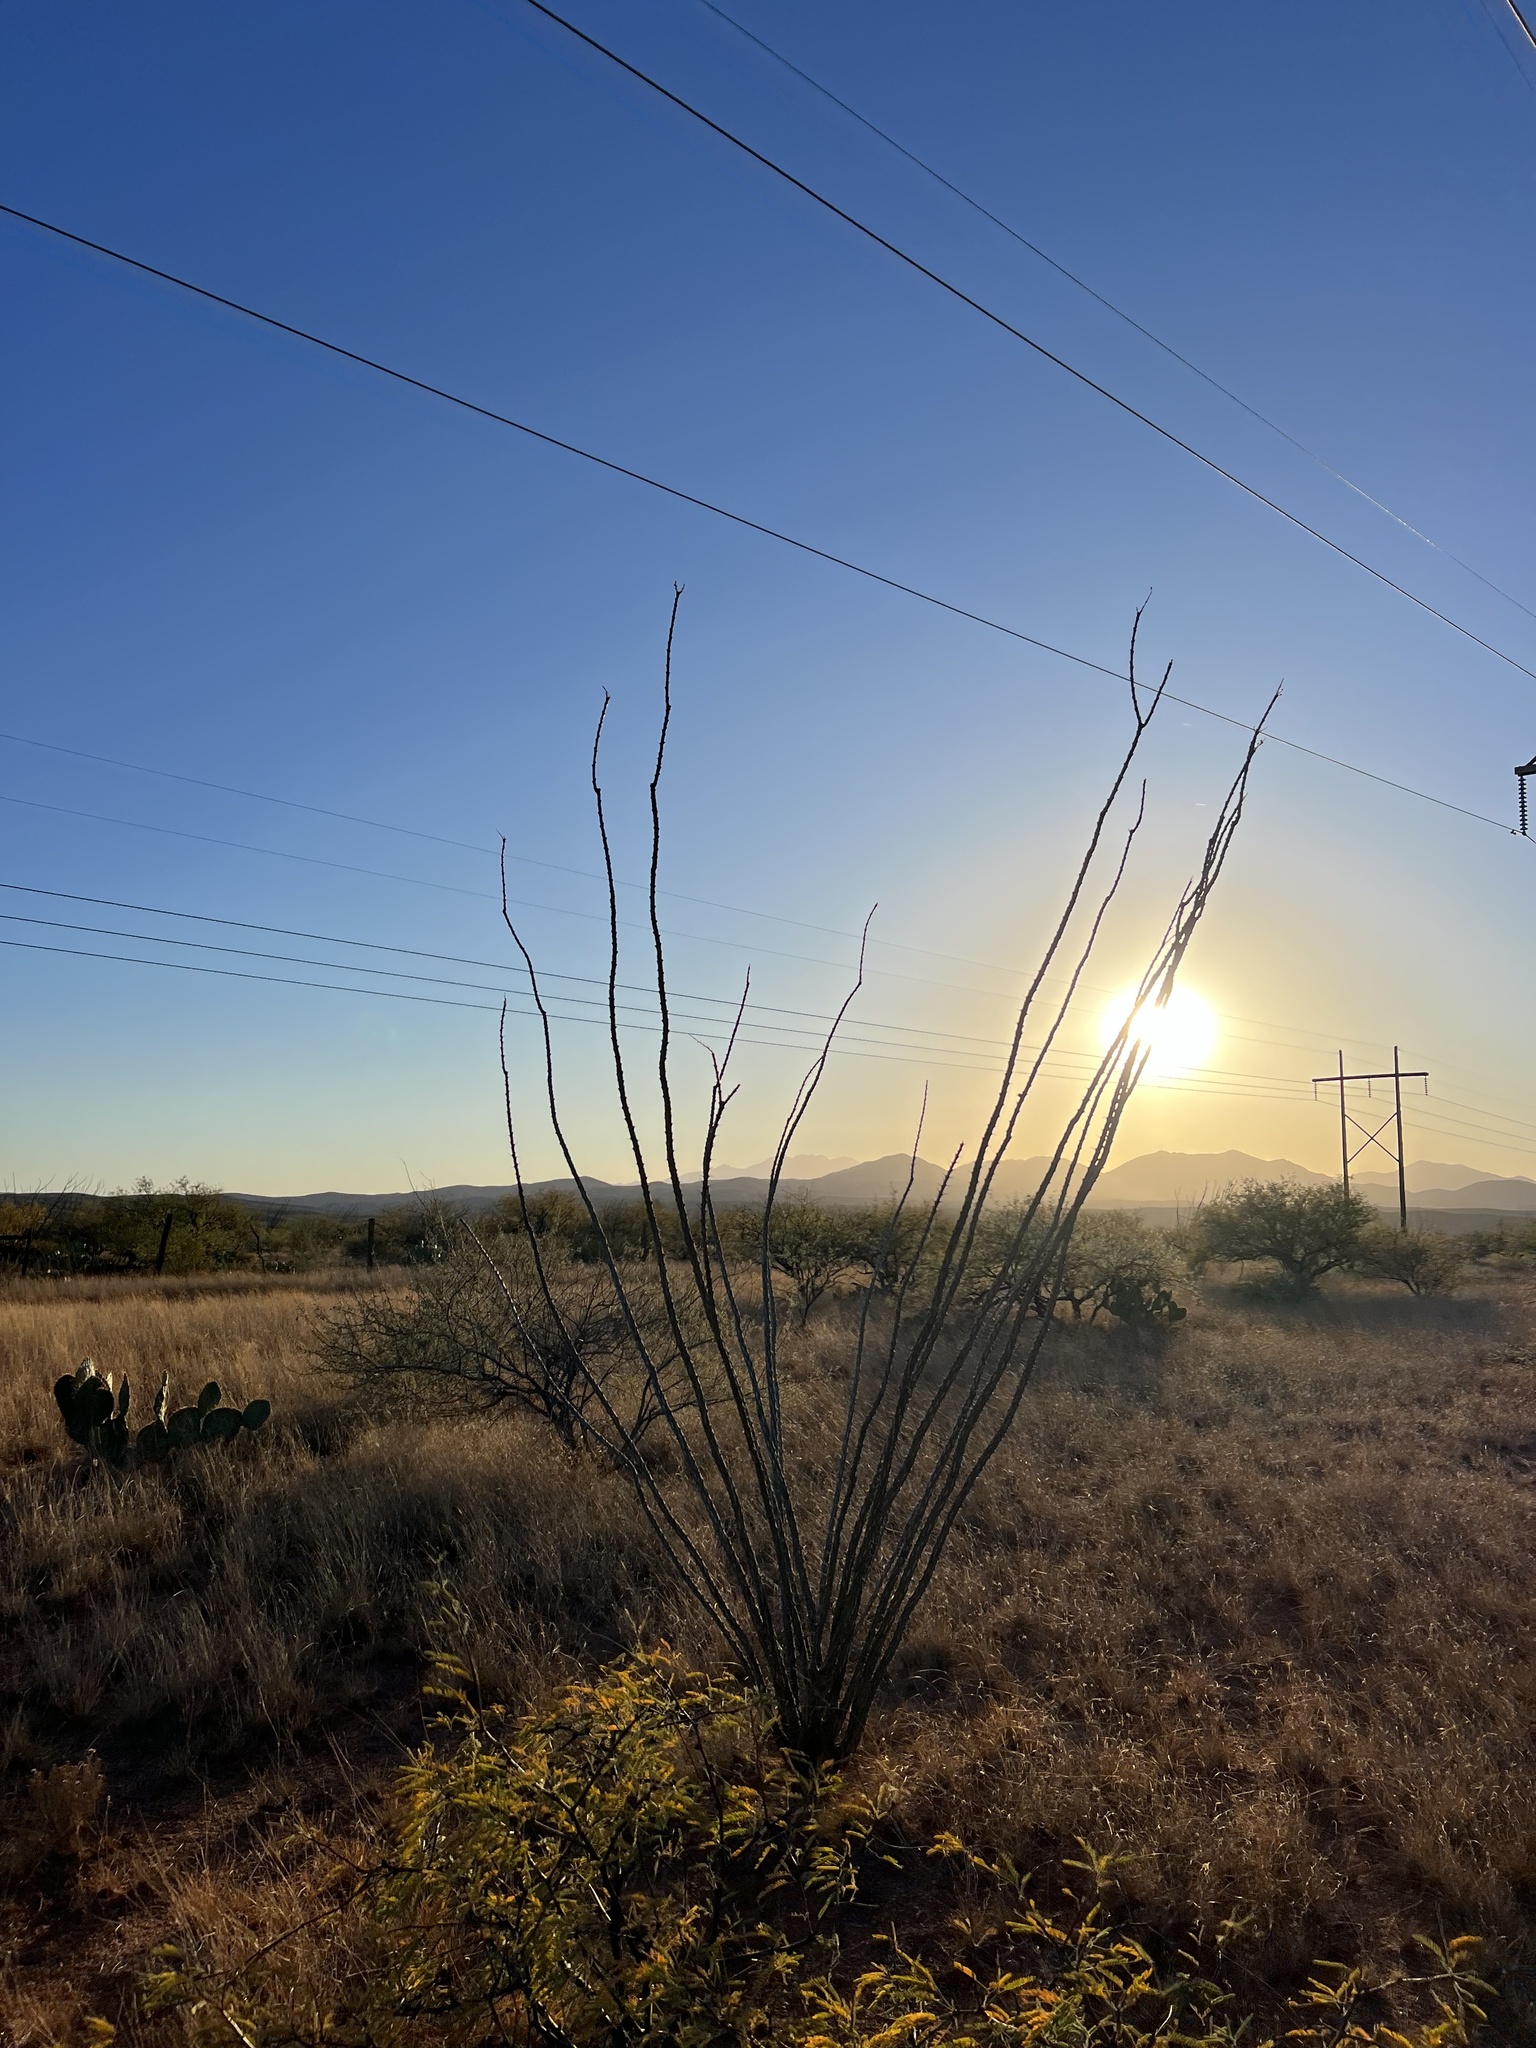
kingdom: Plantae
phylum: Tracheophyta
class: Magnoliopsida
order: Ericales
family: Fouquieriaceae
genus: Fouquieria
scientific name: Fouquieria splendens
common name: Vine-cactus
